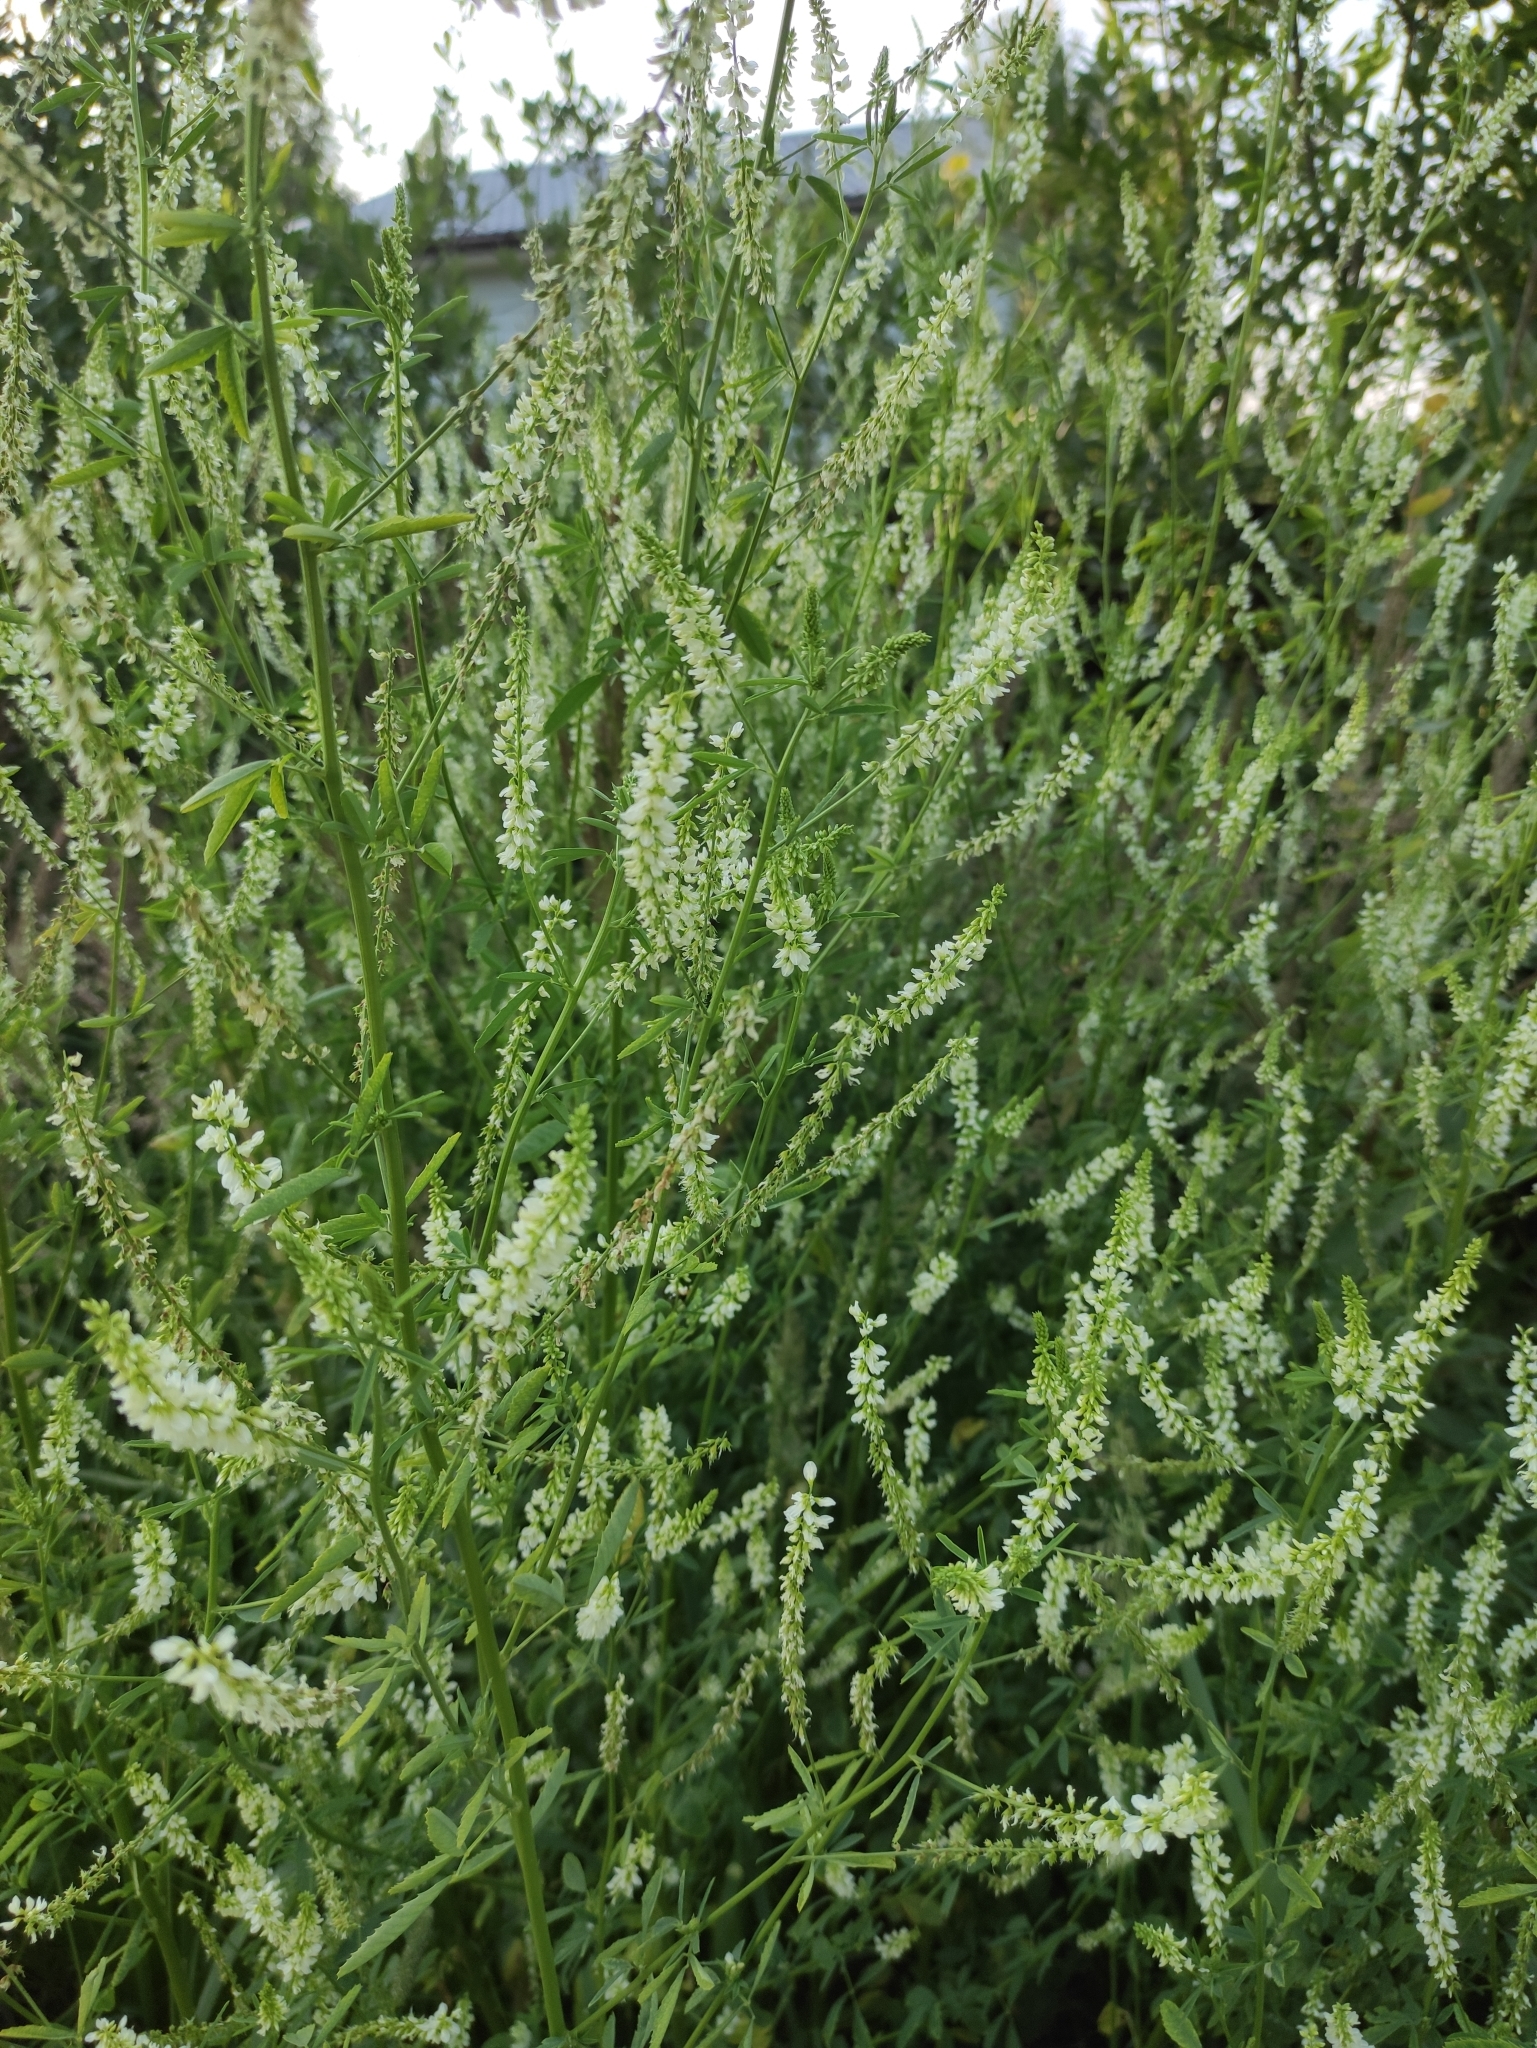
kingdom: Plantae
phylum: Tracheophyta
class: Magnoliopsida
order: Fabales
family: Fabaceae
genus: Melilotus
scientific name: Melilotus albus
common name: White melilot
